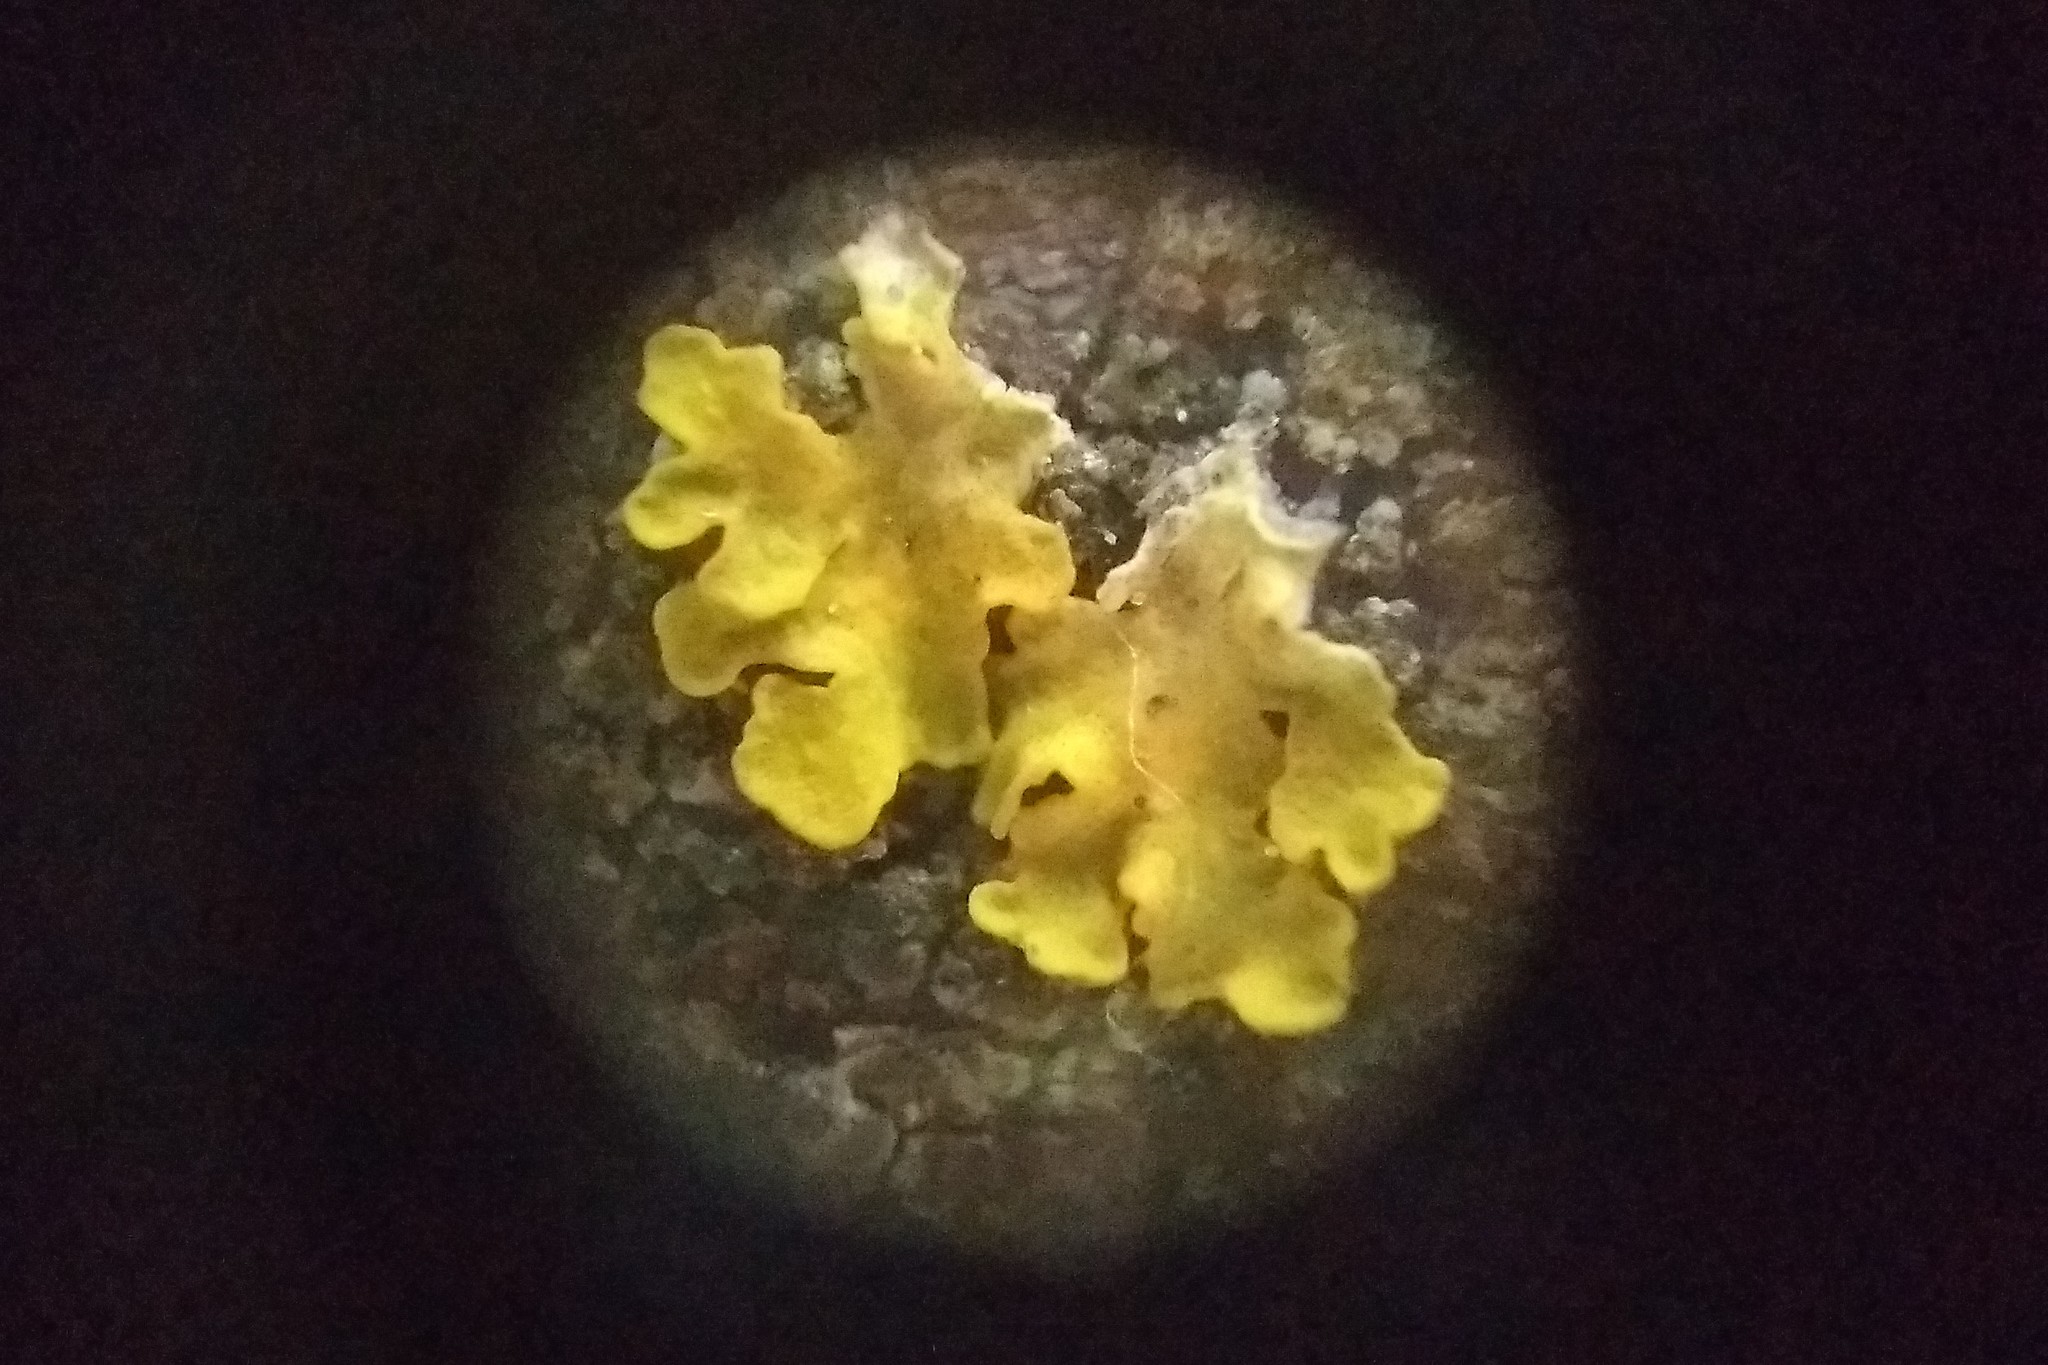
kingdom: Fungi
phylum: Ascomycota
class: Lecanoromycetes
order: Teloschistales
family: Teloschistaceae
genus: Xanthoria
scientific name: Xanthoria parietina
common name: Common orange lichen
